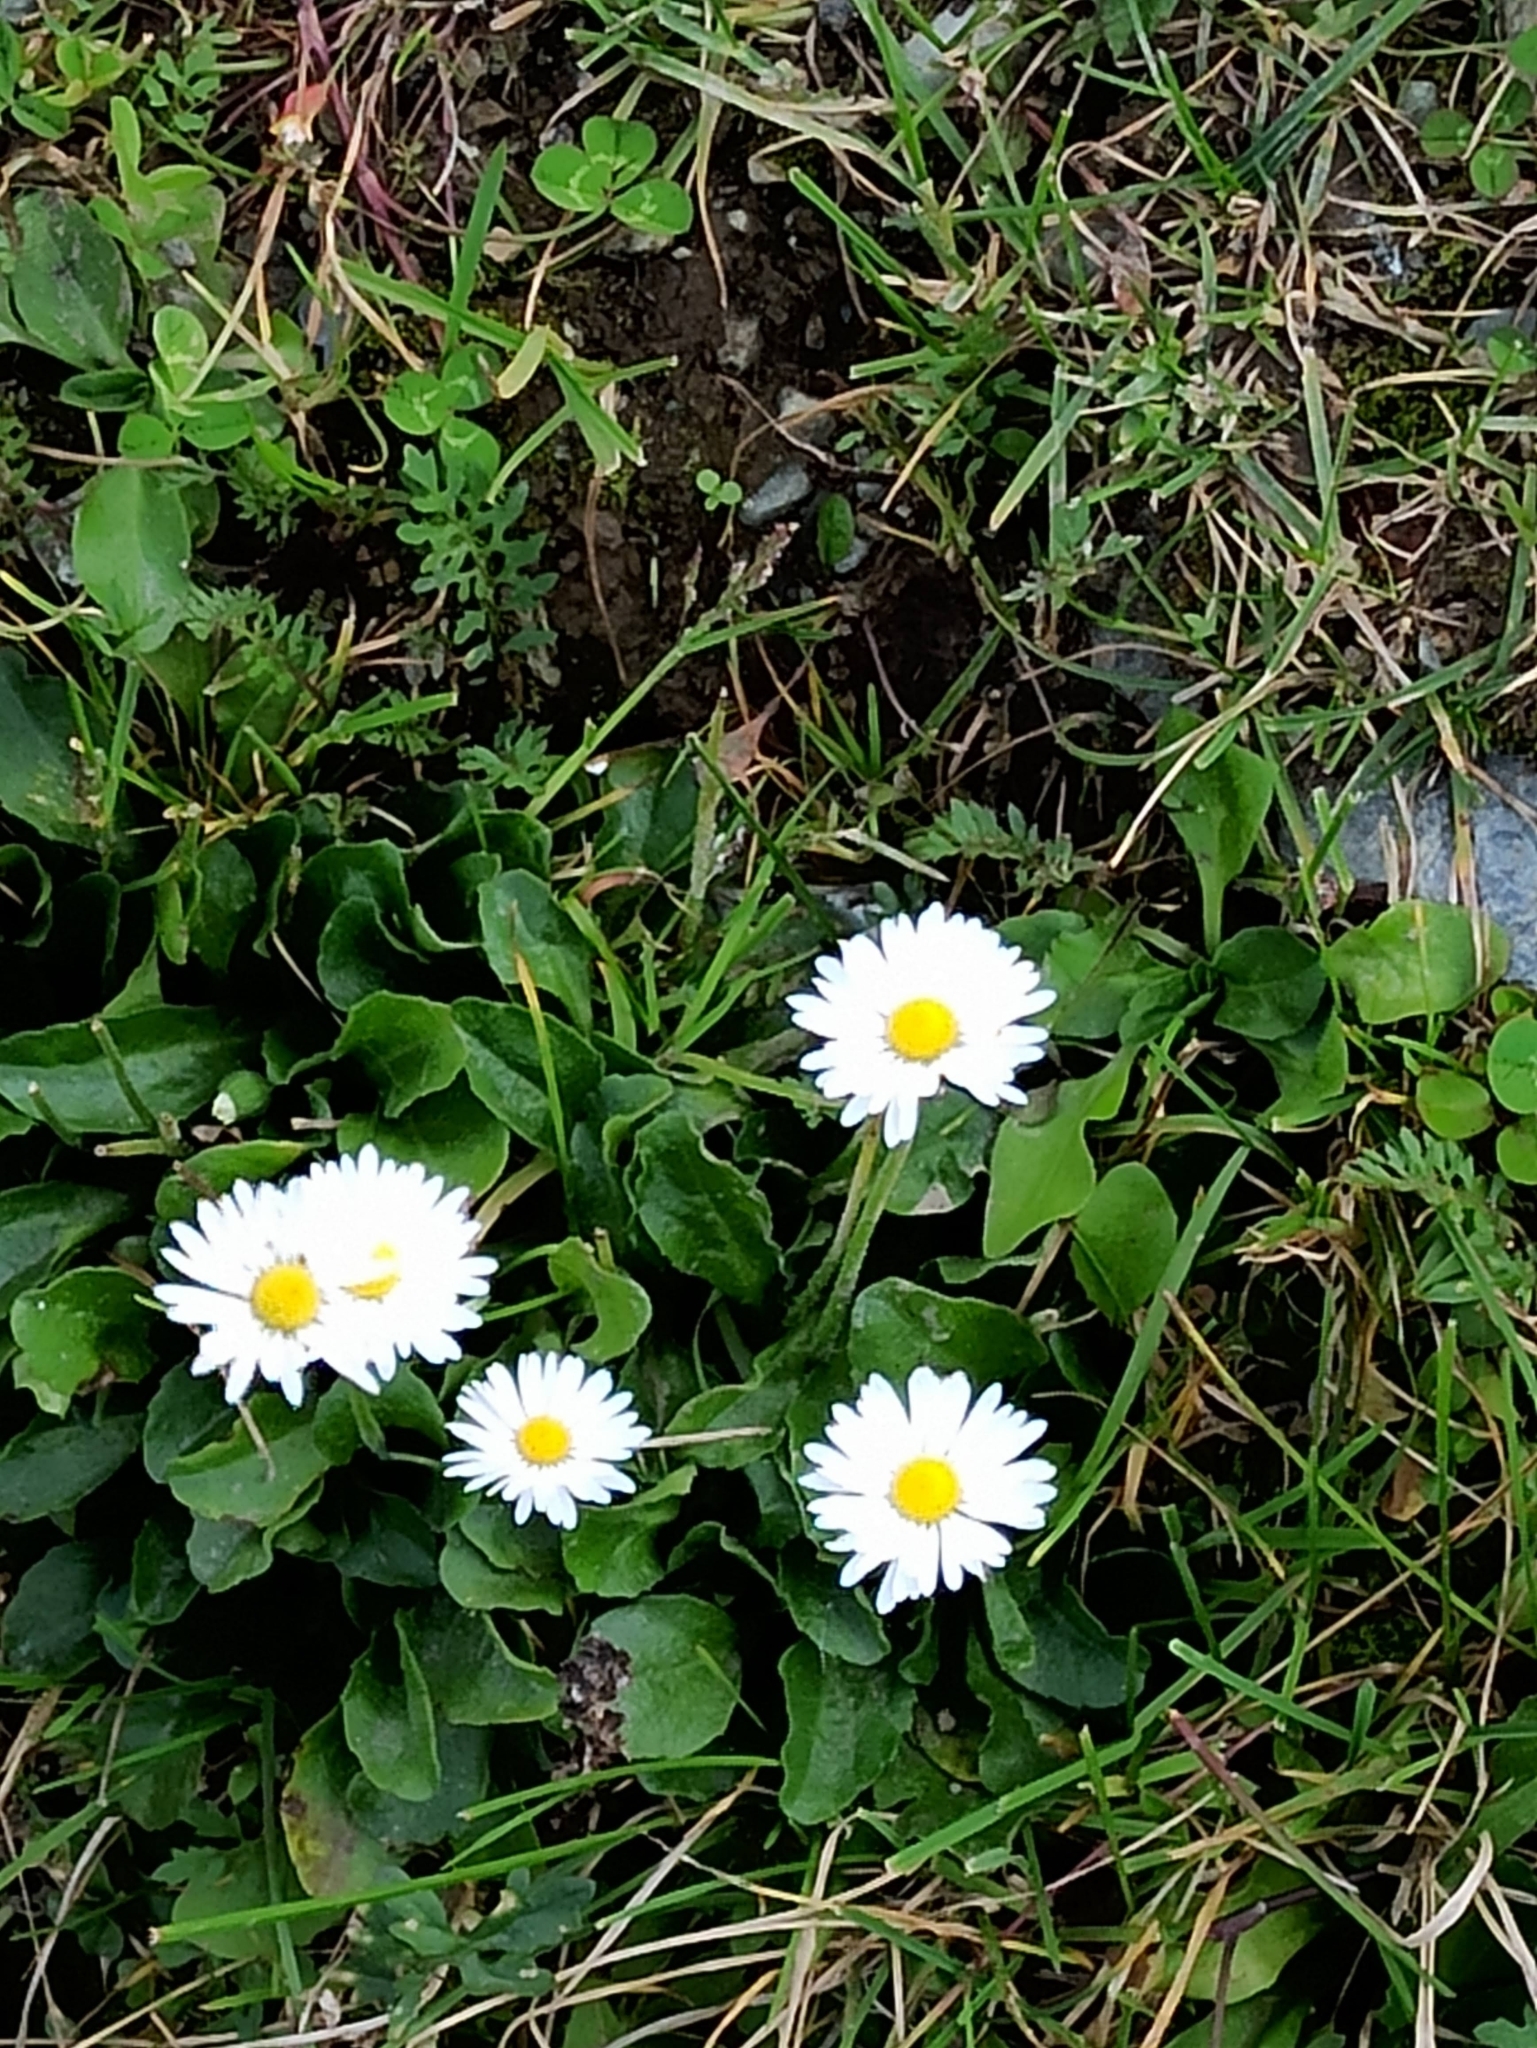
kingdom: Plantae
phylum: Tracheophyta
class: Magnoliopsida
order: Asterales
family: Asteraceae
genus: Bellis
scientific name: Bellis perennis
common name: Lawndaisy
